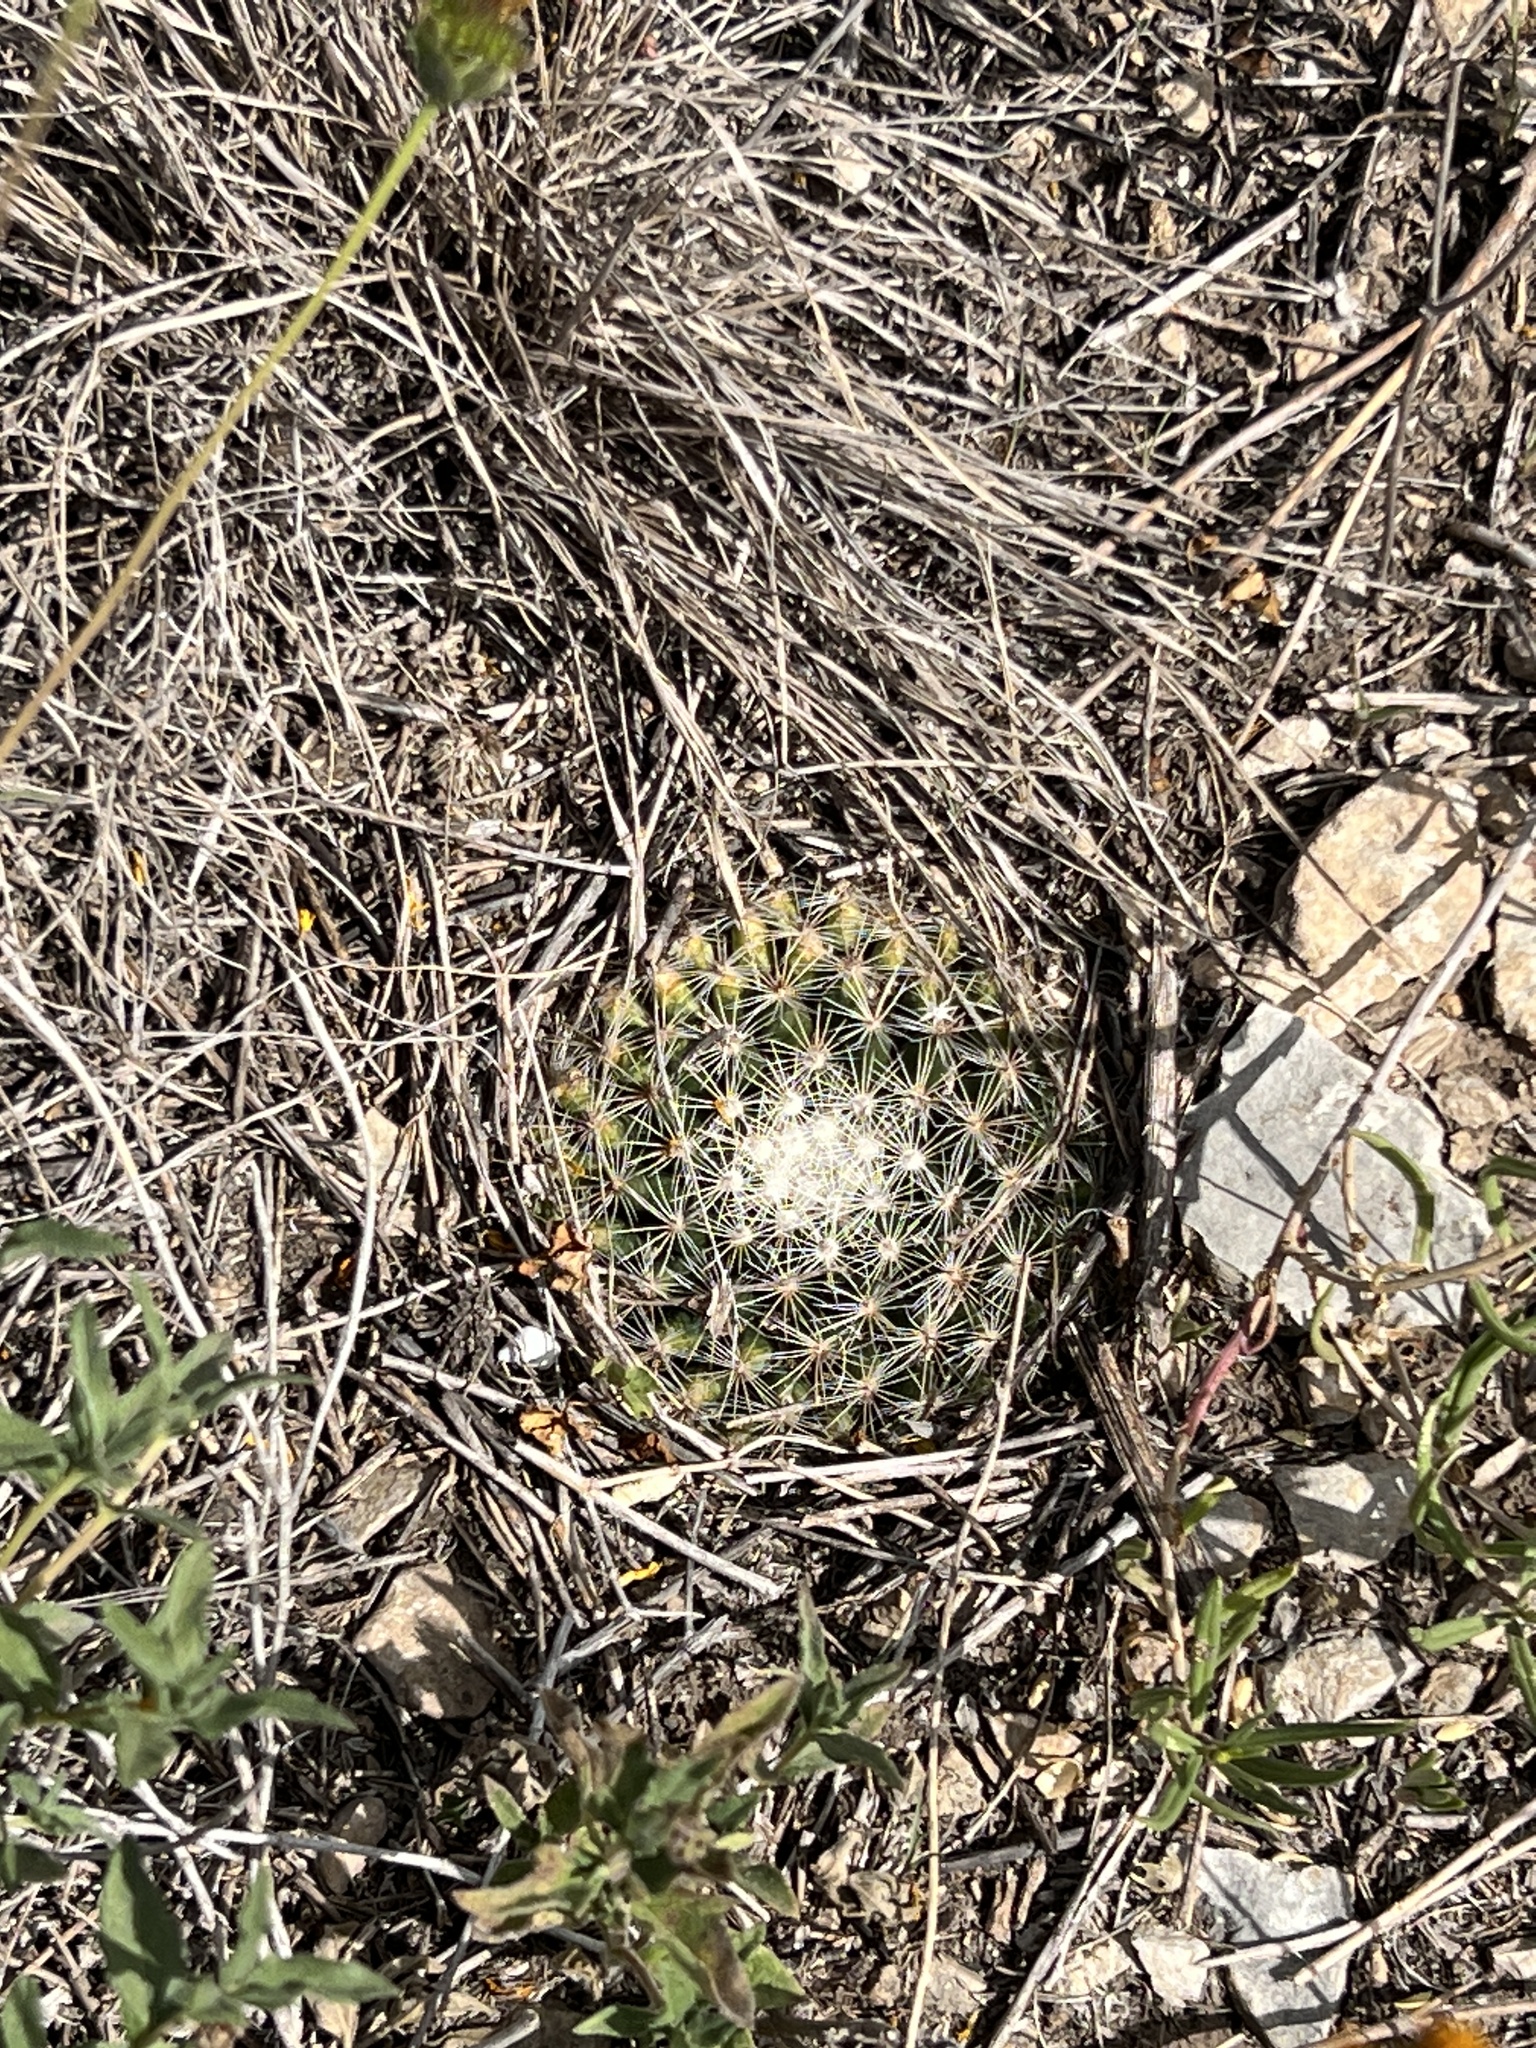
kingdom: Plantae
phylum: Tracheophyta
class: Magnoliopsida
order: Caryophyllales
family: Cactaceae
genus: Mammillaria
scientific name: Mammillaria heyderi
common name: Little nipple cactus
